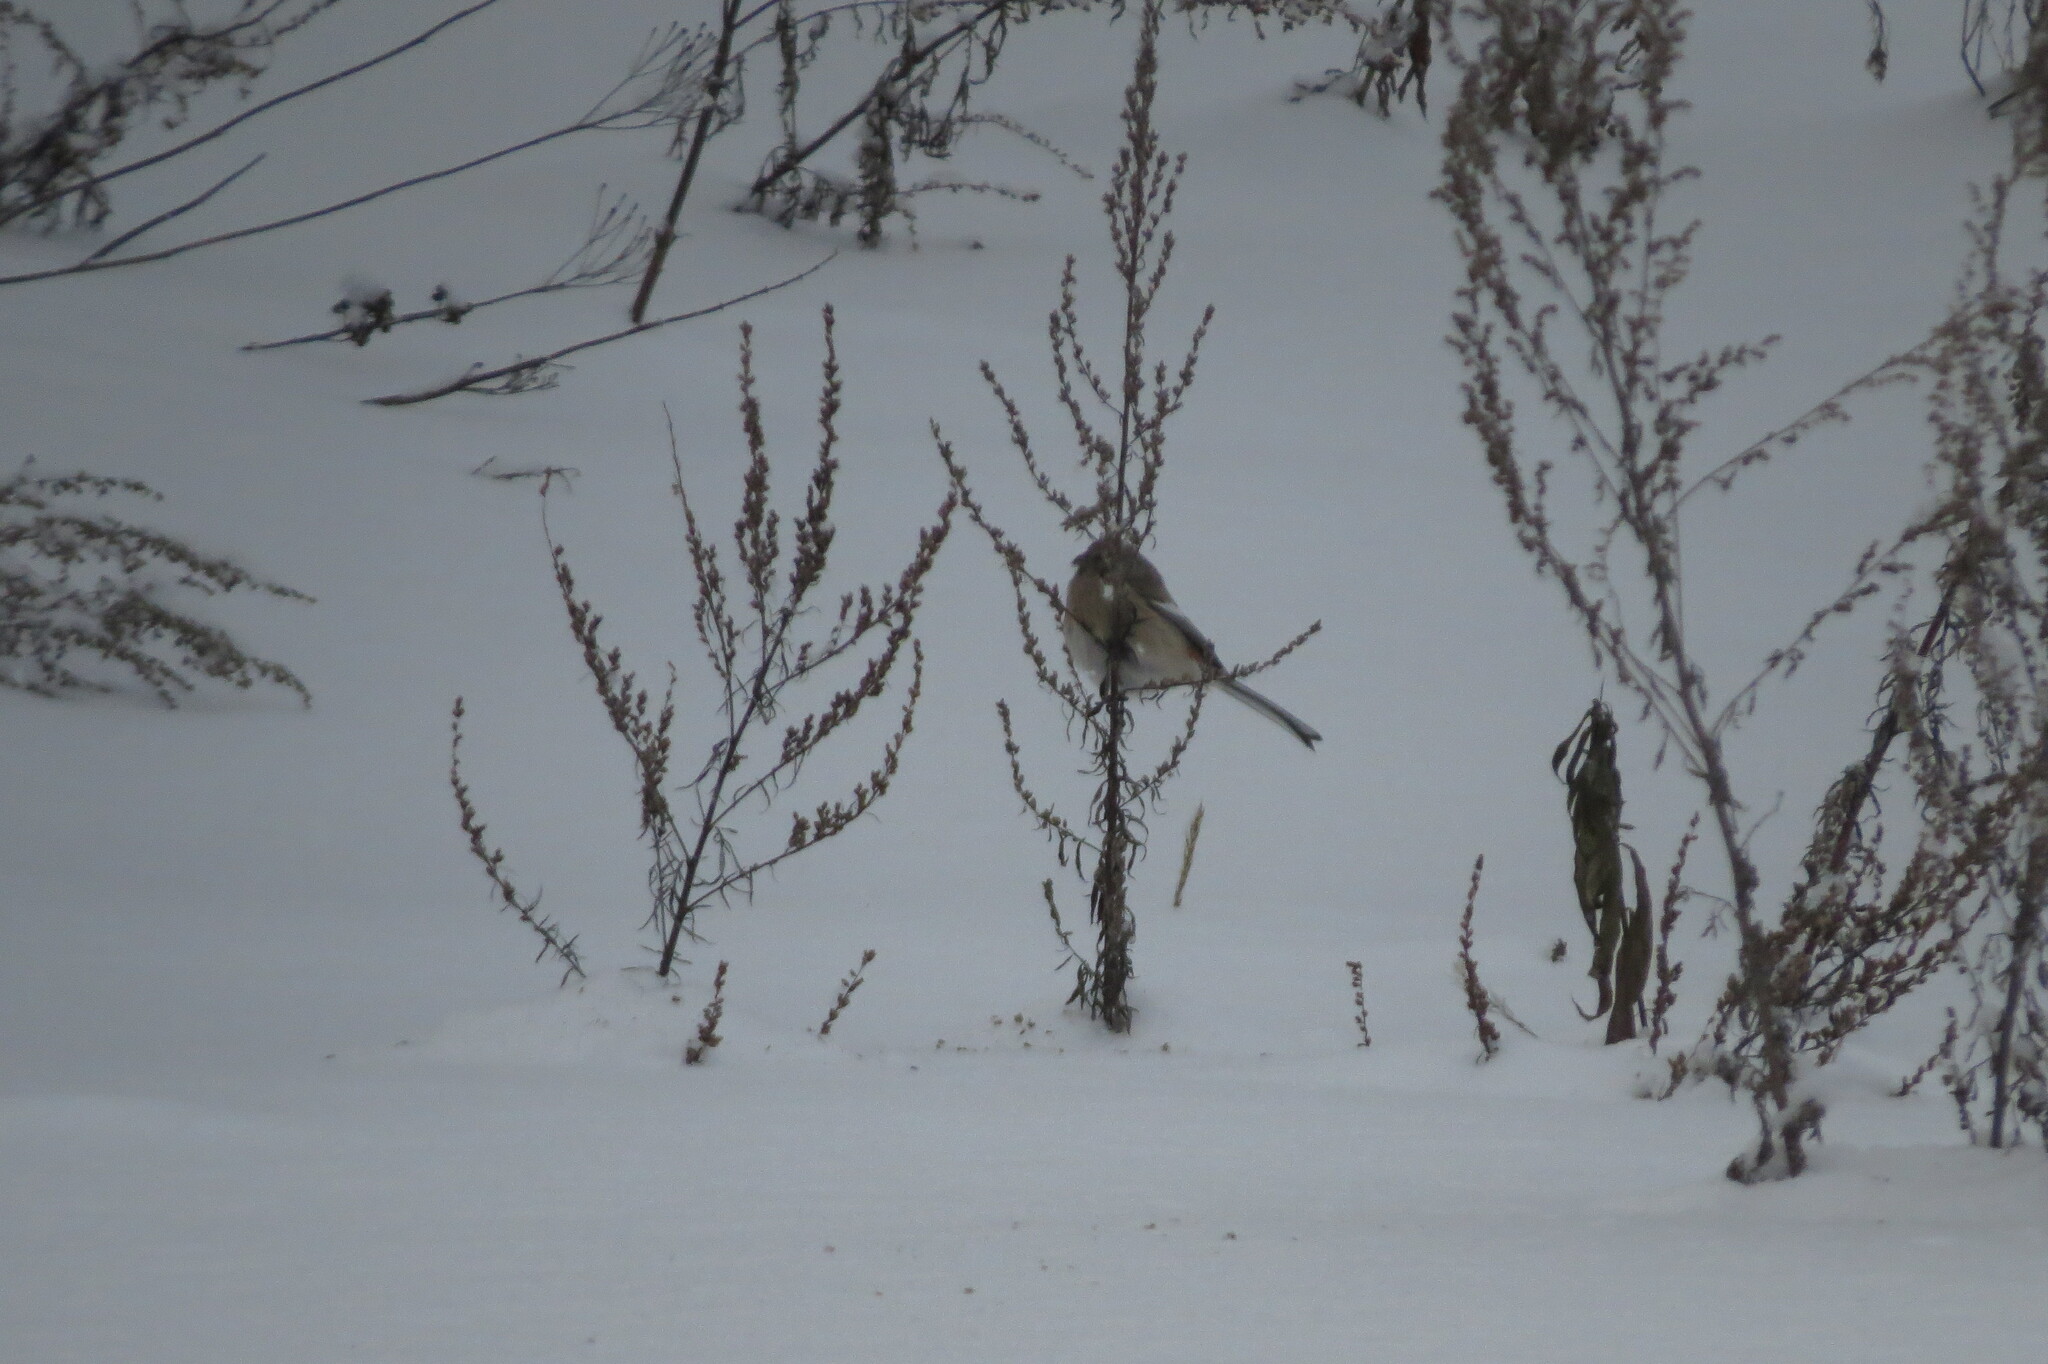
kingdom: Animalia
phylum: Chordata
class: Aves
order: Passeriformes
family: Fringillidae
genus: Carpodacus
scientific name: Carpodacus sibiricus
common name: Long-tailed rosefinch
